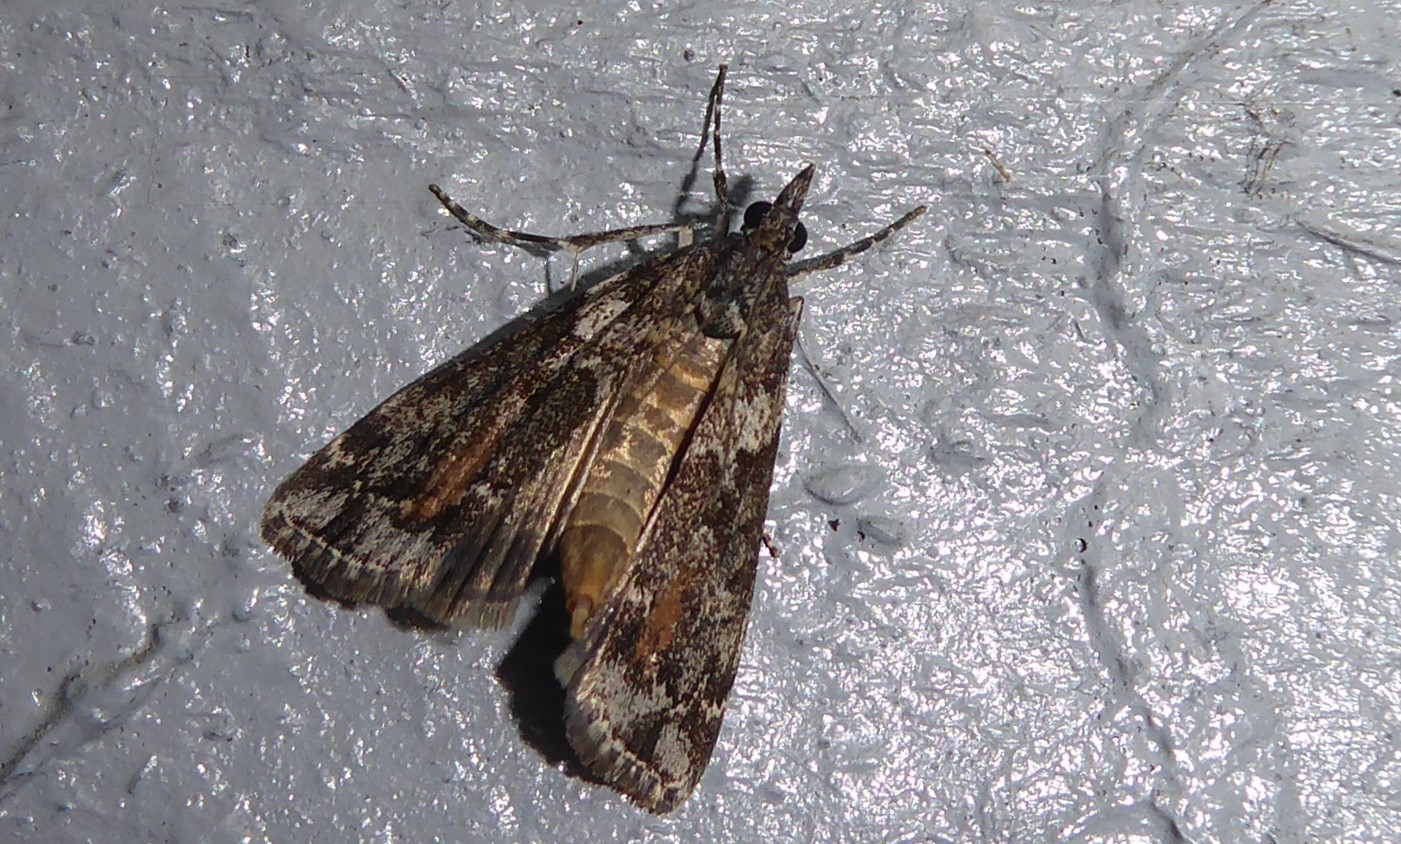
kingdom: Animalia
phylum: Arthropoda
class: Insecta
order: Lepidoptera
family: Crambidae
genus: Eudonia
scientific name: Eudonia submarginalis
